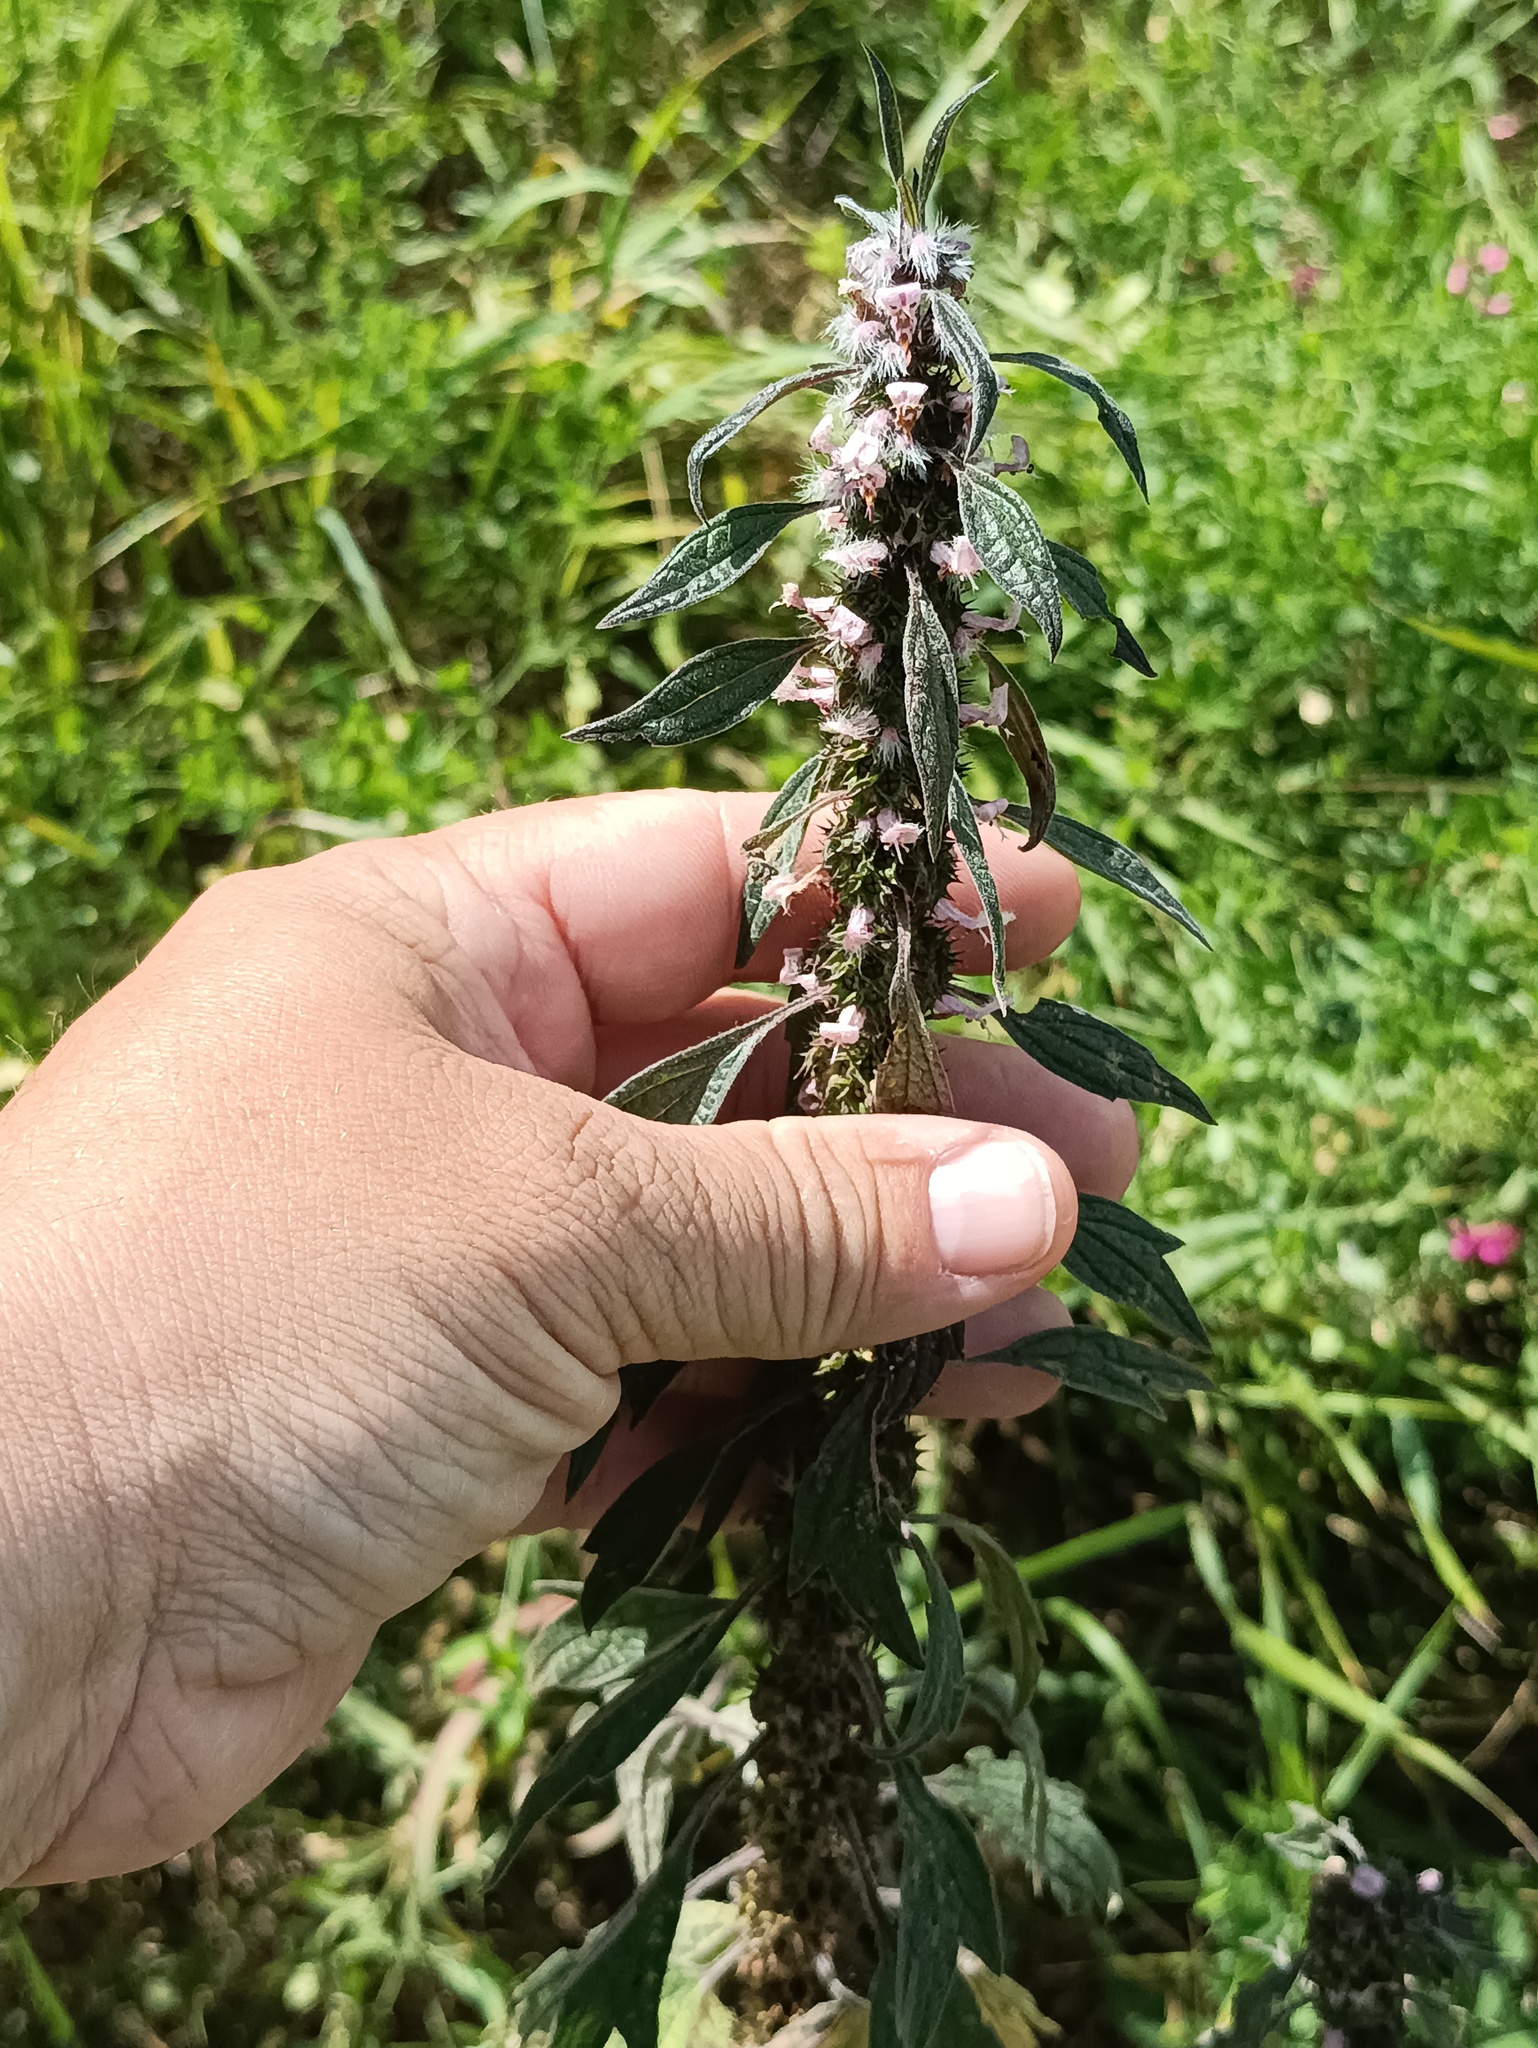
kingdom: Plantae
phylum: Tracheophyta
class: Magnoliopsida
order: Lamiales
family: Lamiaceae
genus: Leonurus
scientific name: Leonurus quinquelobatus
